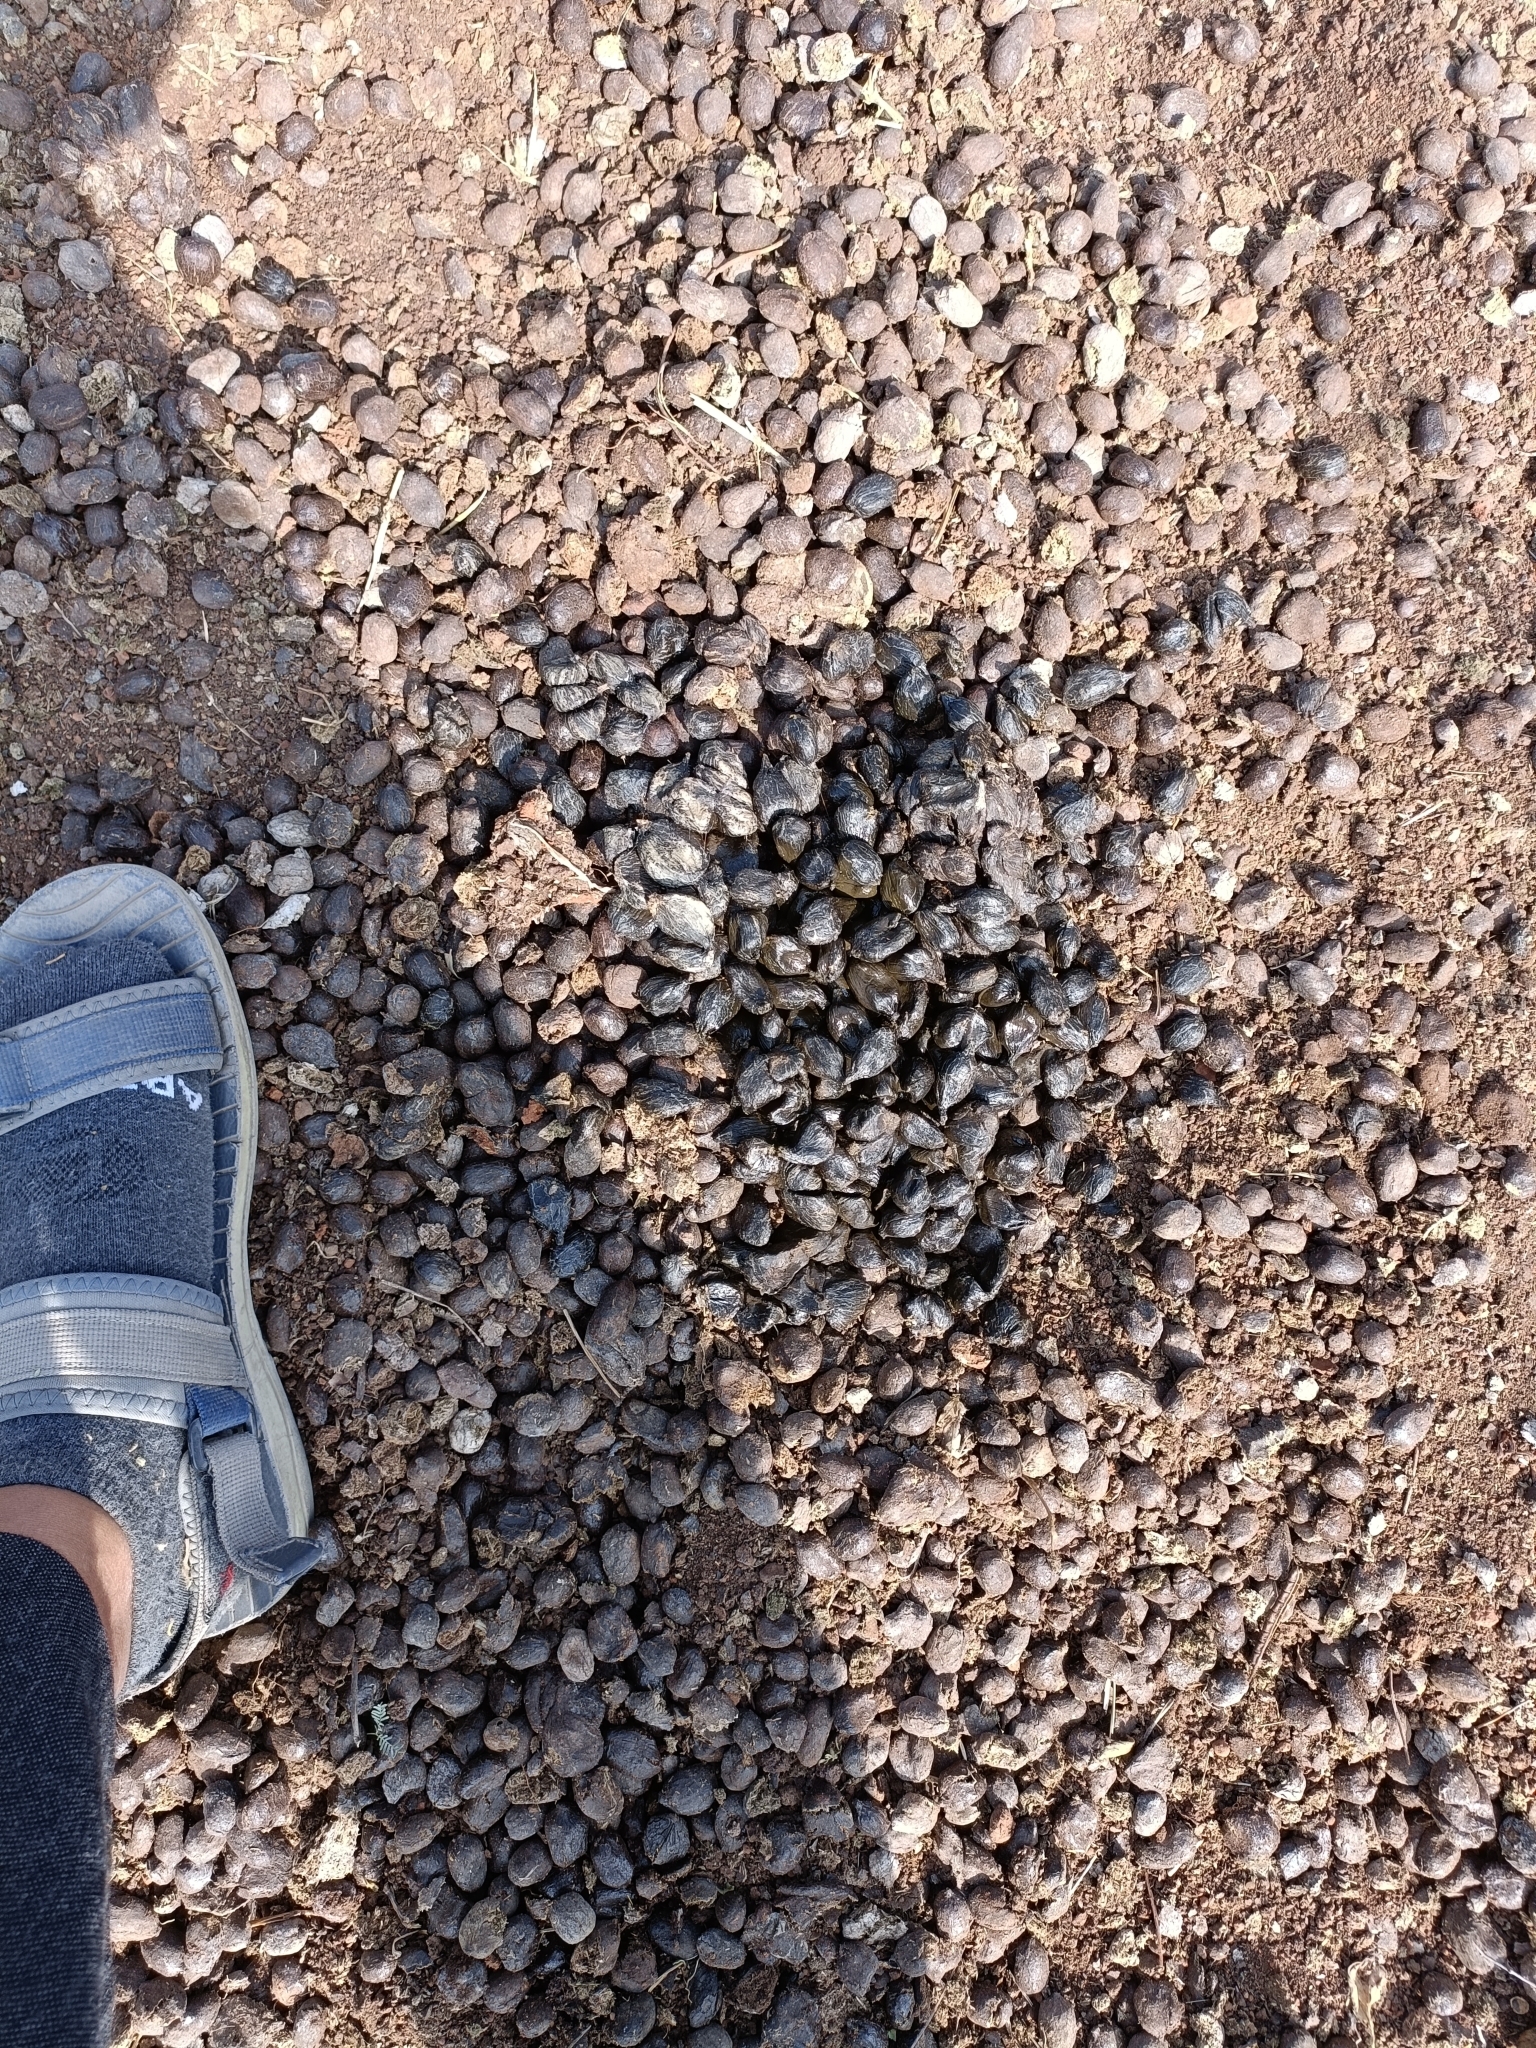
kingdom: Animalia
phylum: Chordata
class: Mammalia
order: Artiodactyla
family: Bovidae
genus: Boselaphus
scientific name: Boselaphus tragocamelus
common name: Nilgai
